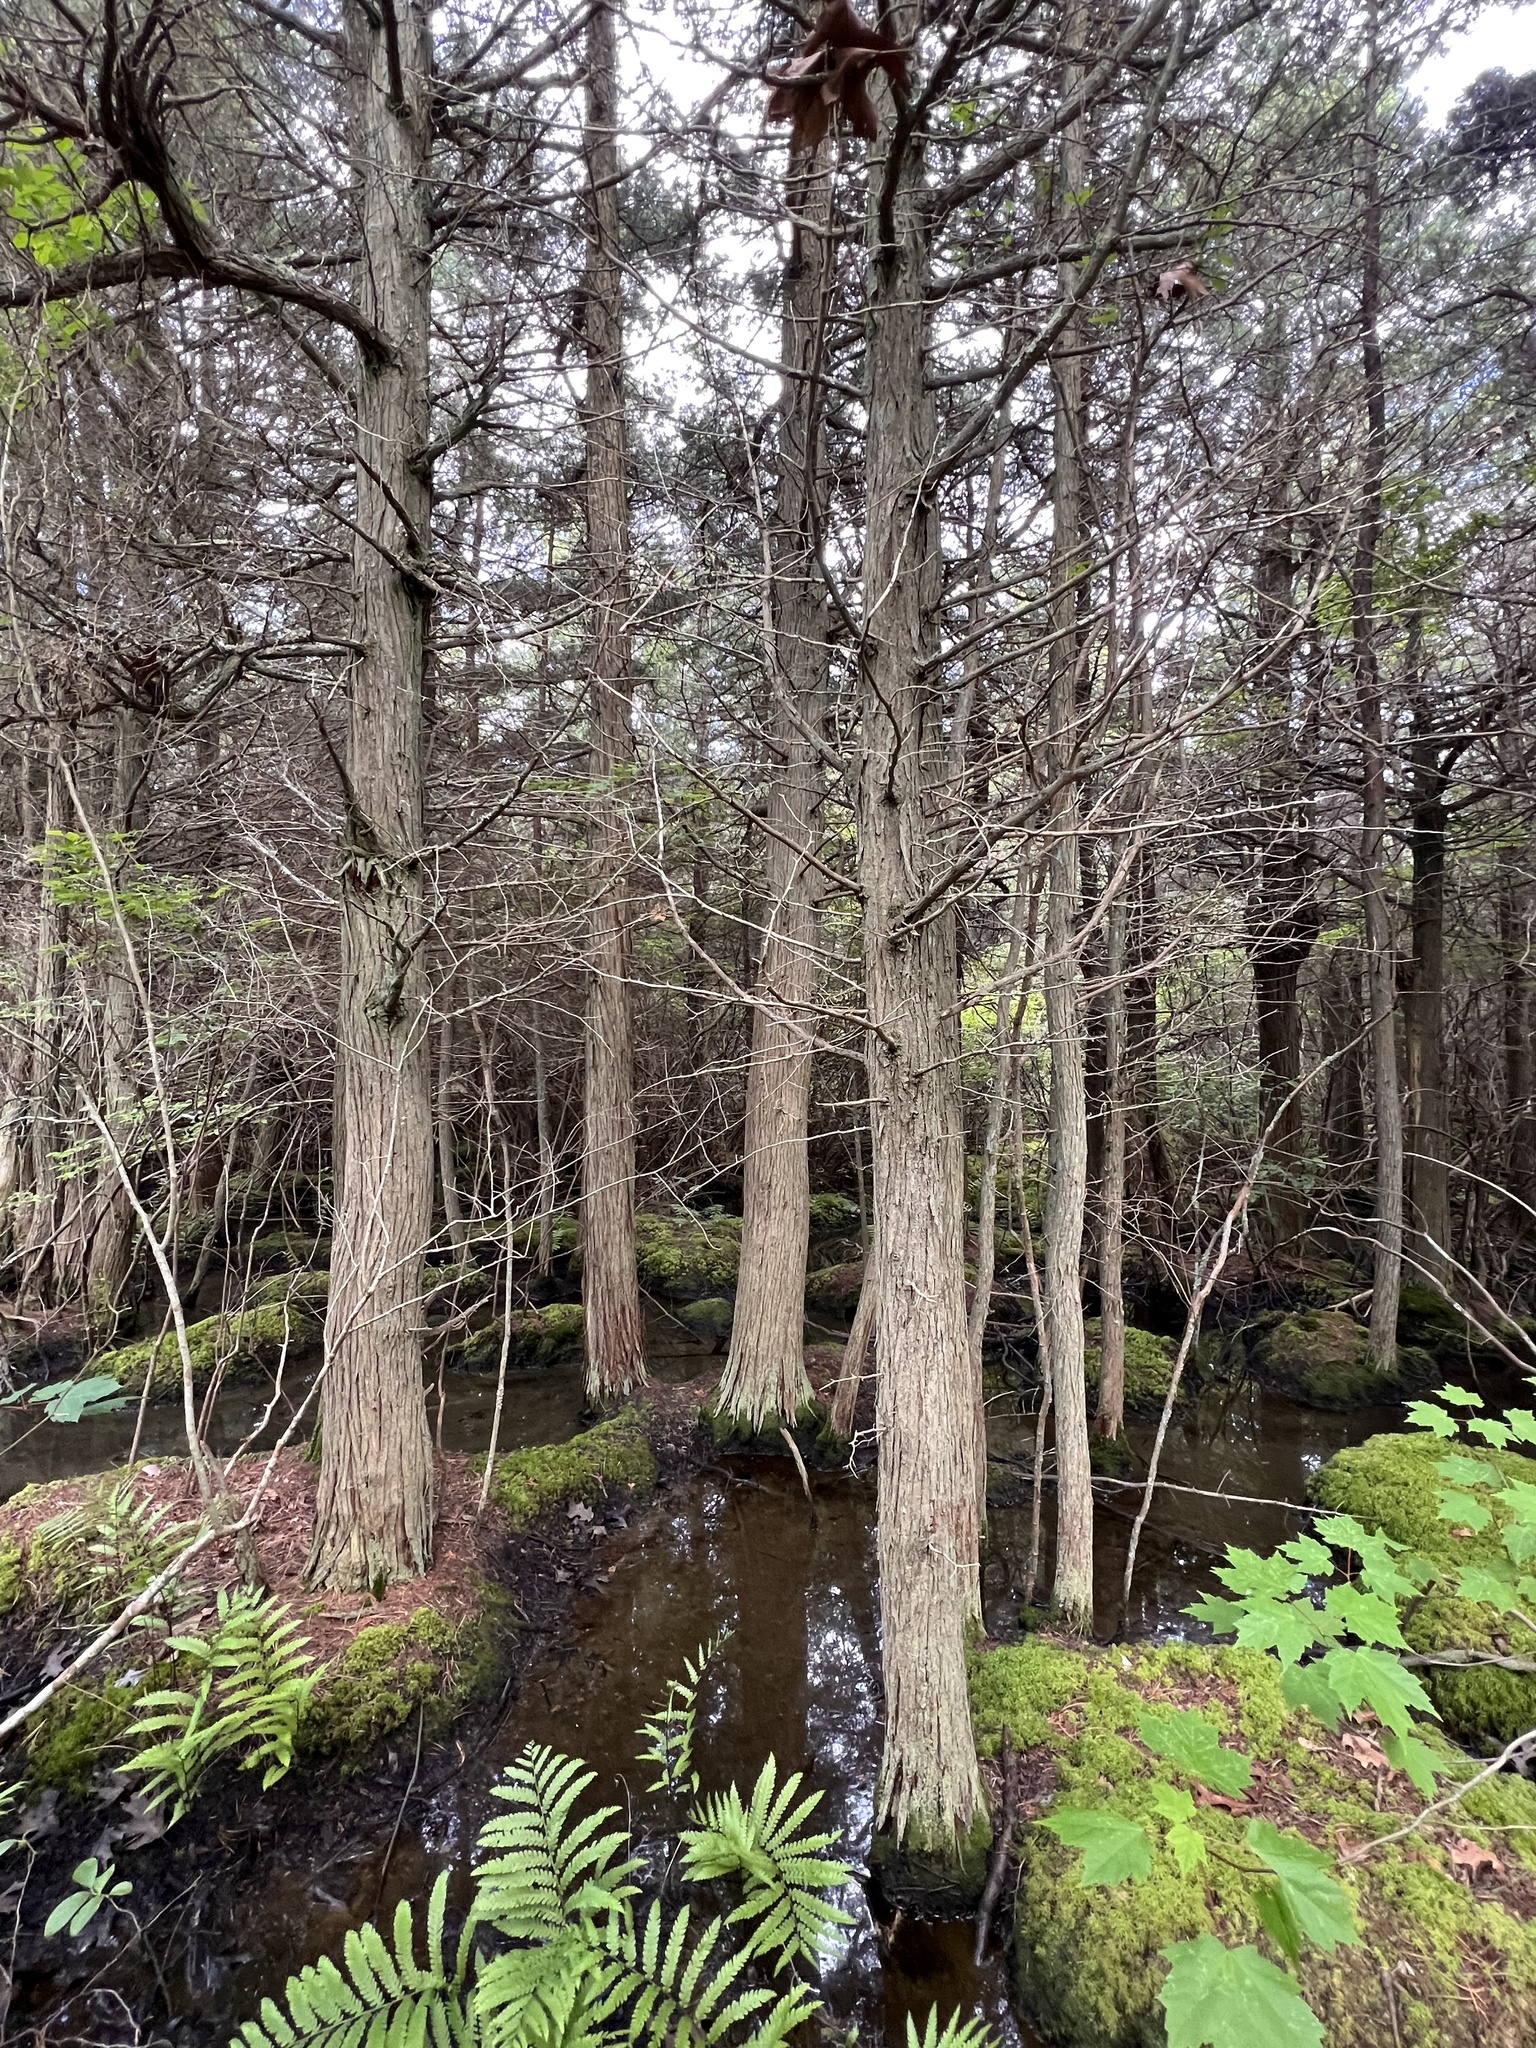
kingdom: Plantae
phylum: Tracheophyta
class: Pinopsida
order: Pinales
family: Cupressaceae
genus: Chamaecyparis
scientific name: Chamaecyparis thyoides
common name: Atlantic white cedar
